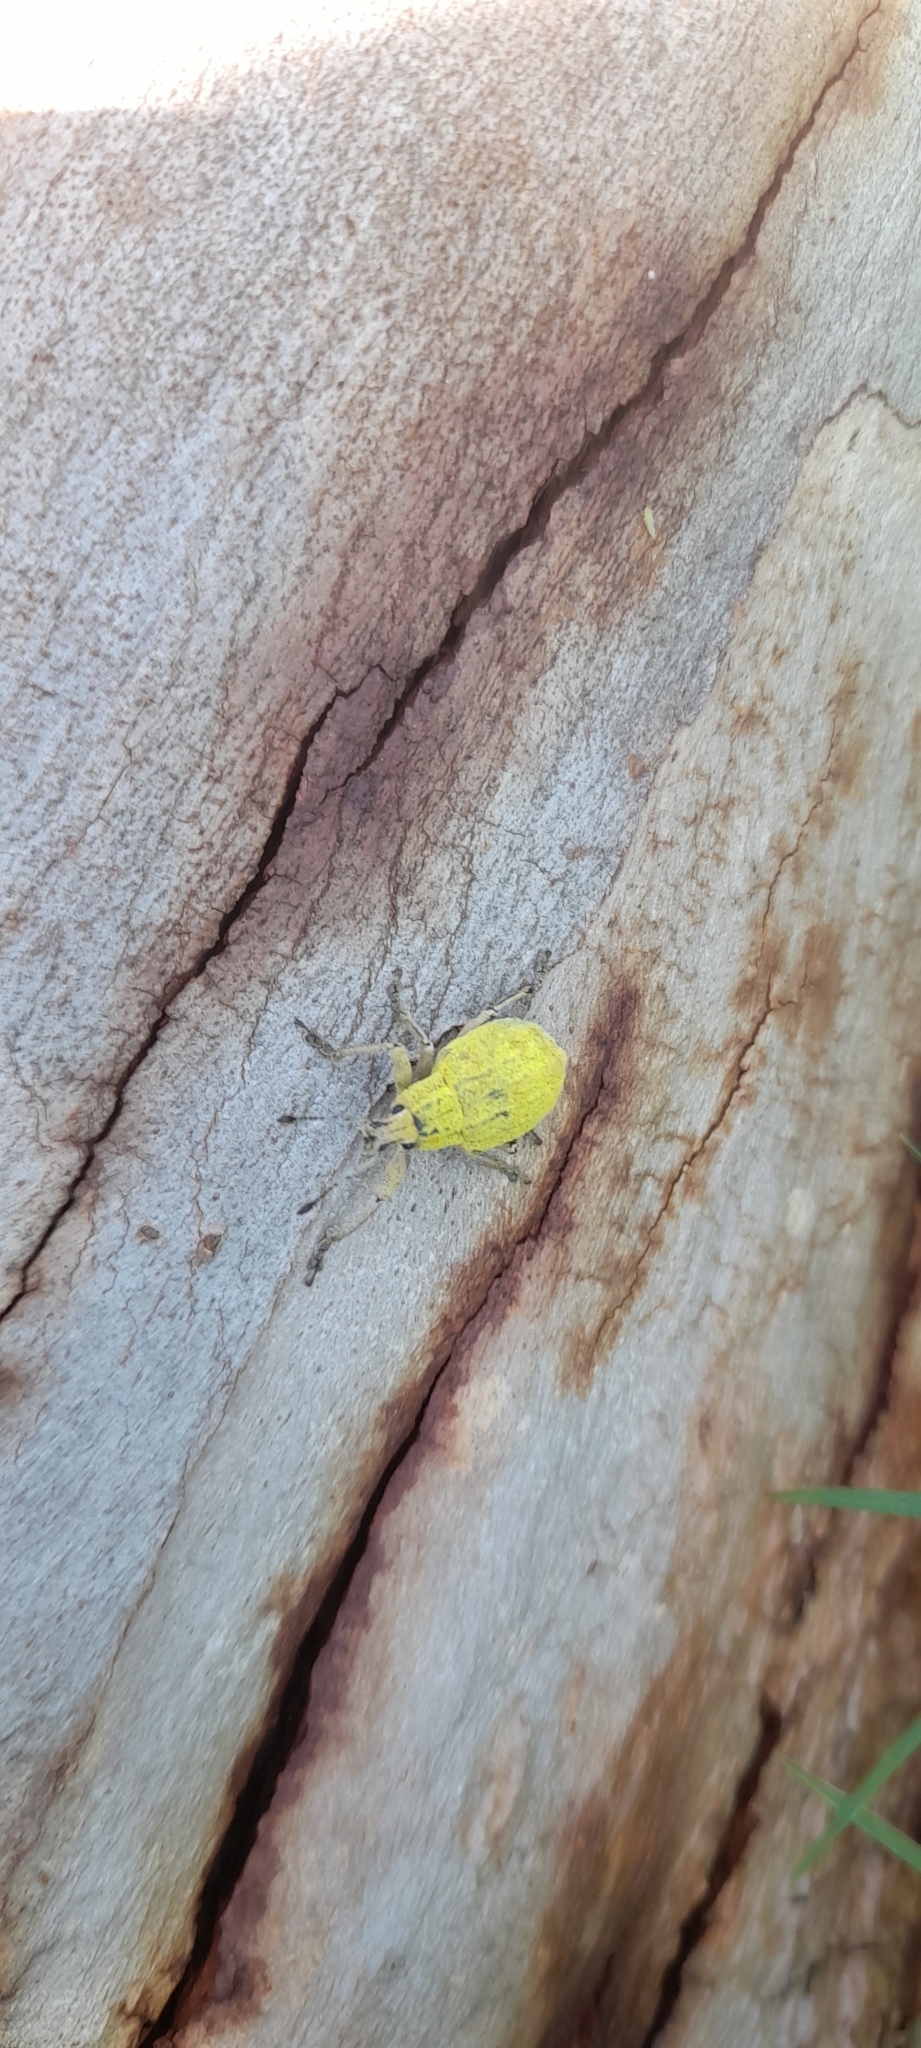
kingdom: Animalia
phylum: Arthropoda
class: Insecta
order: Coleoptera
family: Curculionidae
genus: Cyrtomon
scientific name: Cyrtomon inhalatus
